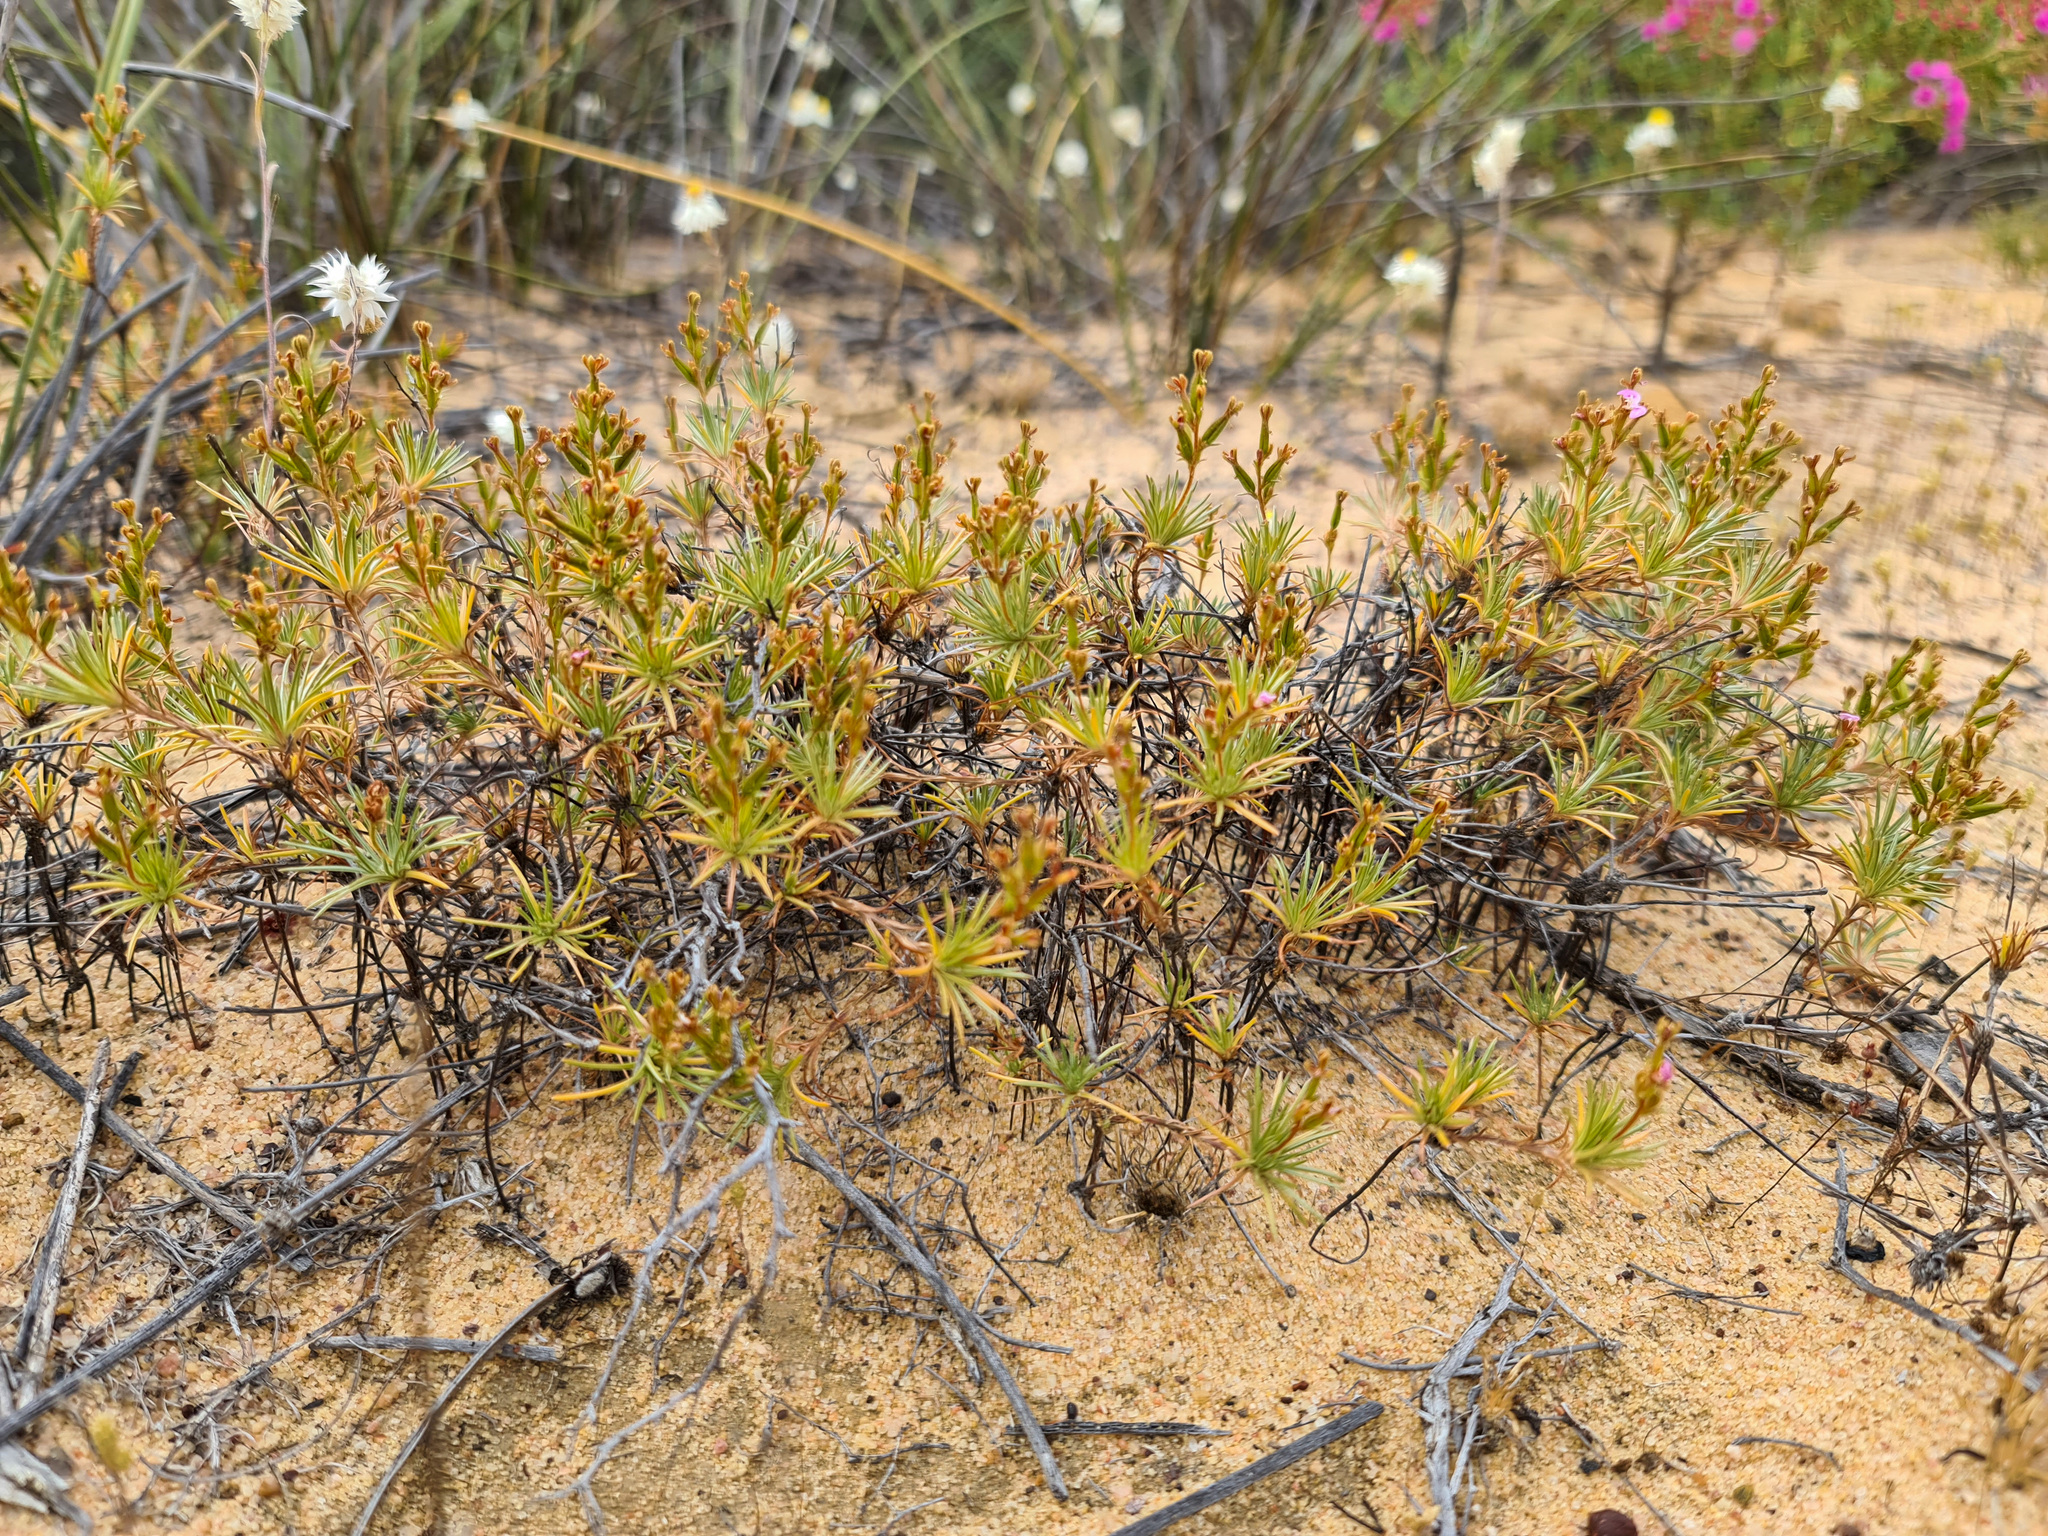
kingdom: Plantae
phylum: Tracheophyta
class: Magnoliopsida
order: Asterales
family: Stylidiaceae
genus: Stylidium
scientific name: Stylidium burbidgeanum
